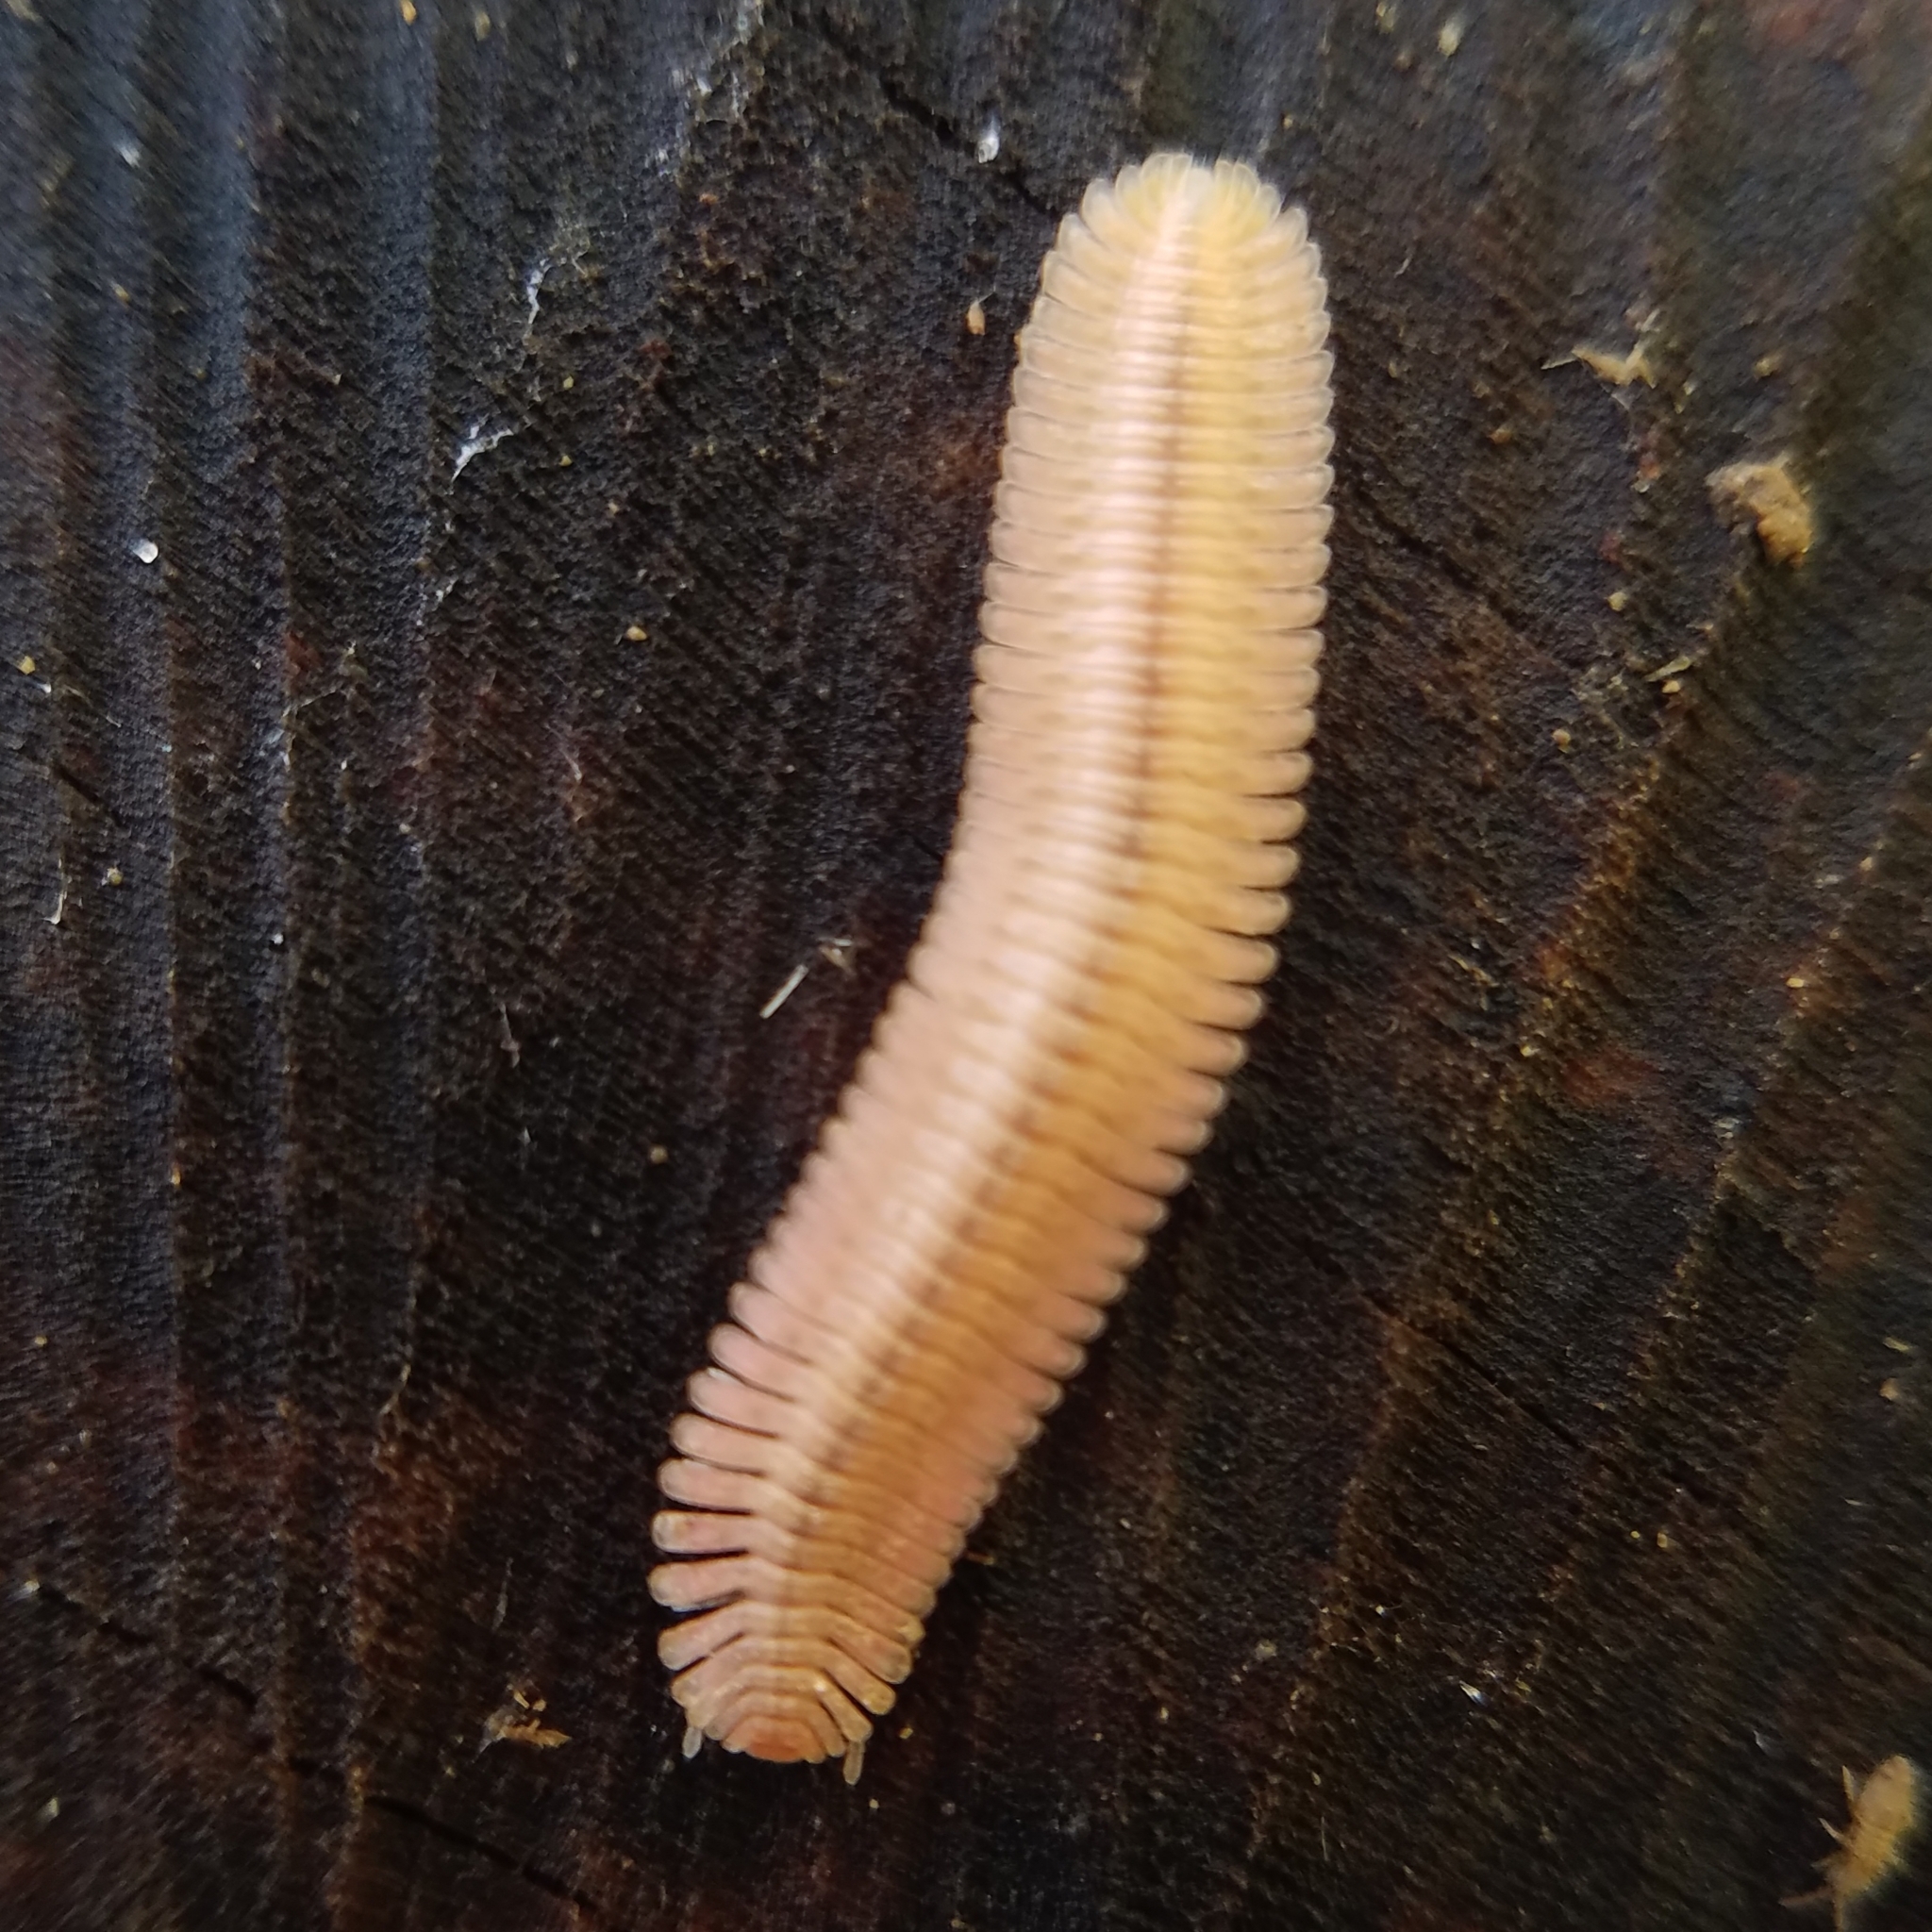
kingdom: Animalia
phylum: Arthropoda
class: Diplopoda
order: Platydesmida
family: Andrognathidae
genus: Brachycybe
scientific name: Brachycybe lecontii
